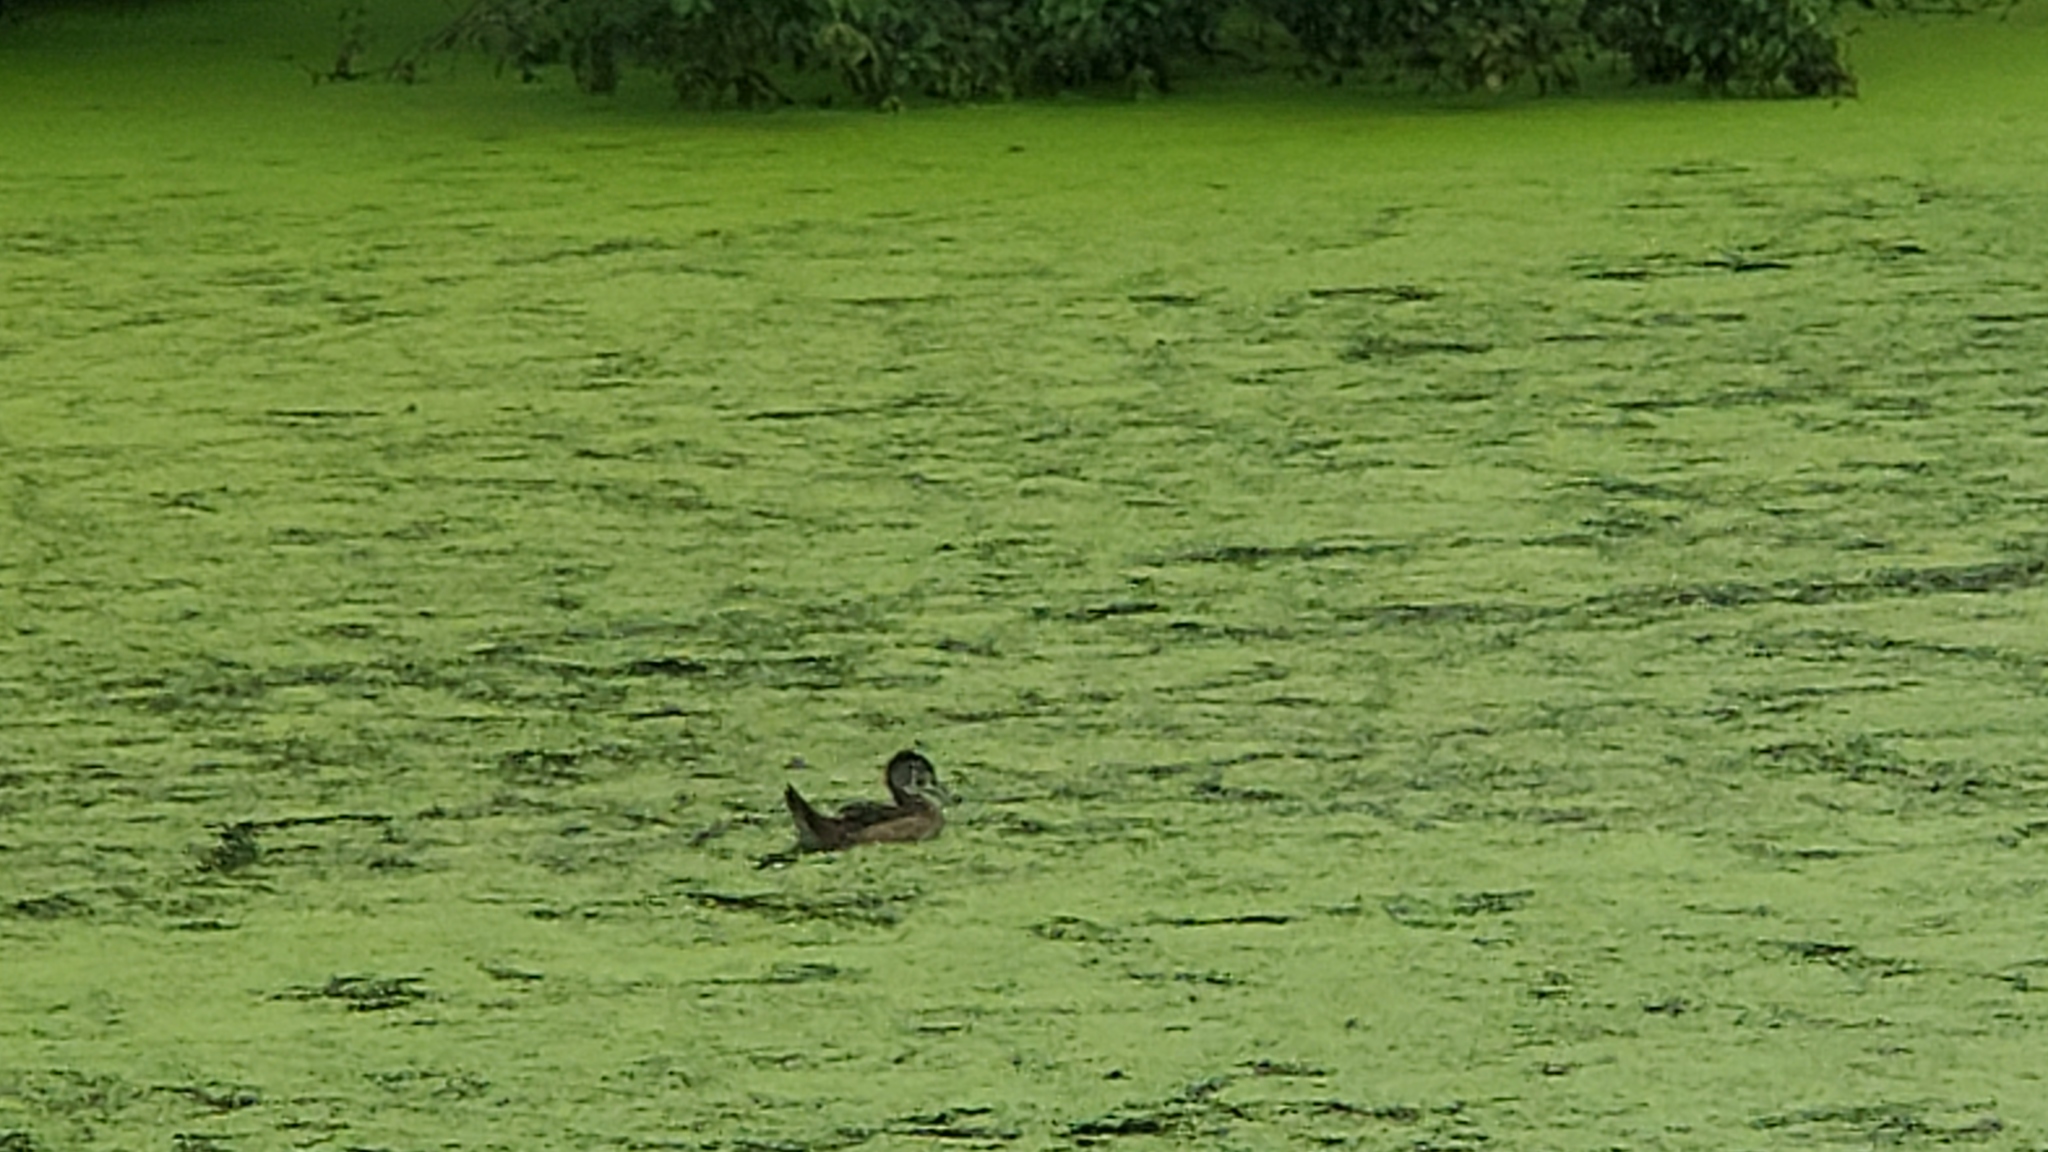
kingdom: Animalia
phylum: Chordata
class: Aves
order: Anseriformes
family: Anatidae
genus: Aix
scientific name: Aix sponsa
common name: Wood duck
